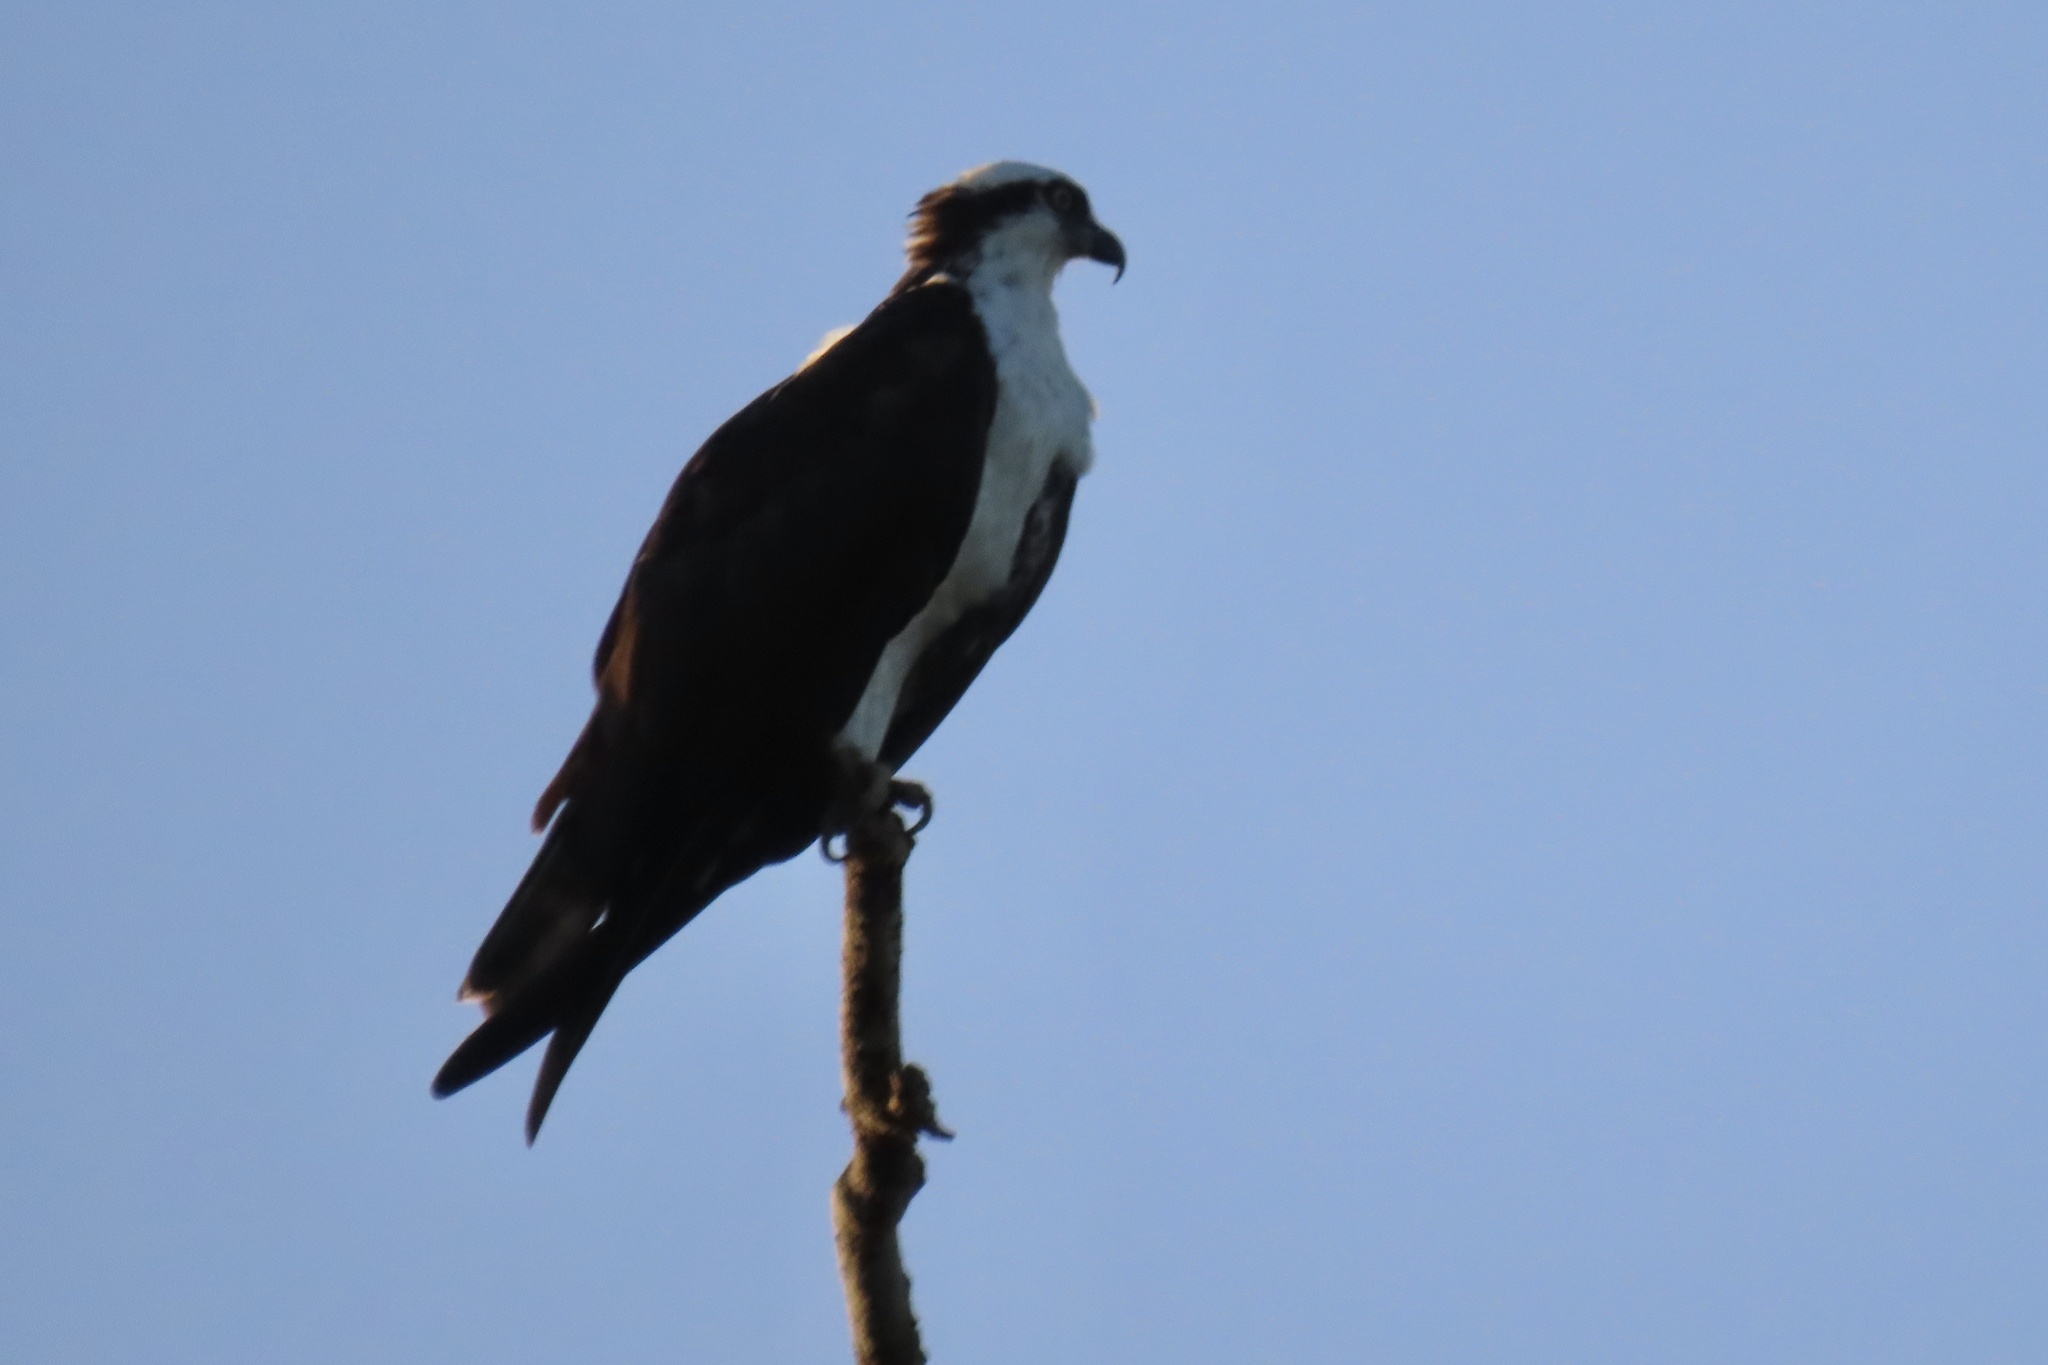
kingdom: Animalia
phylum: Chordata
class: Aves
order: Accipitriformes
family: Pandionidae
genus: Pandion
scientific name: Pandion haliaetus
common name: Osprey
